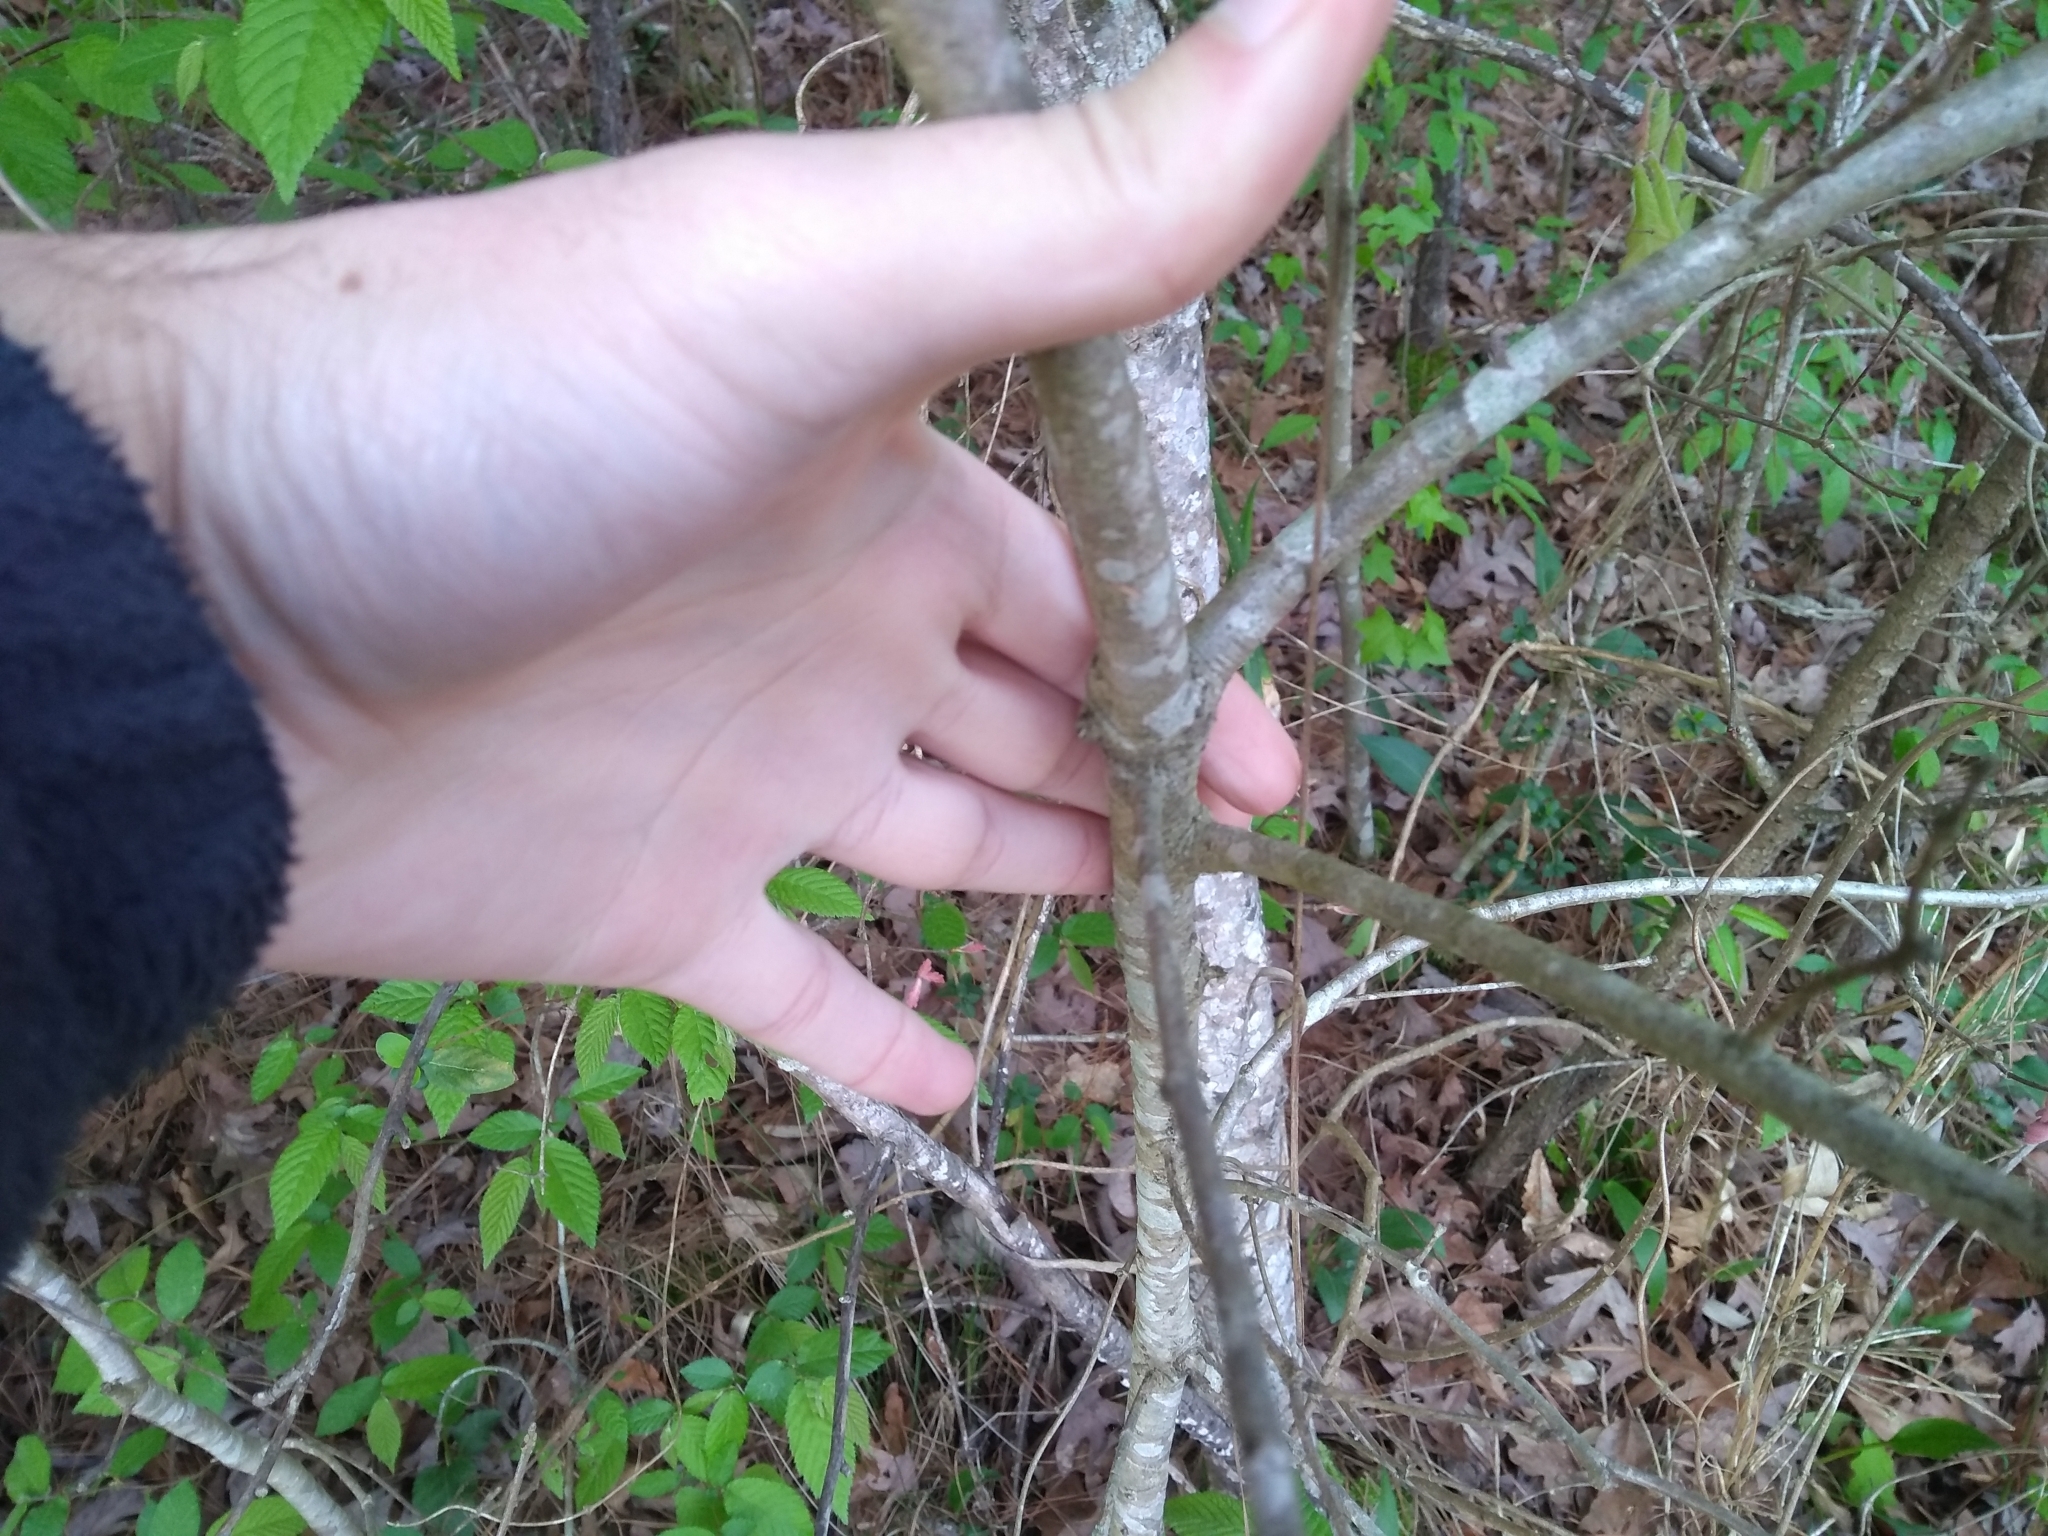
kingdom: Animalia
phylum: Arthropoda
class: Insecta
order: Hymenoptera
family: Cynipidae
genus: Callirhytis
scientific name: Callirhytis
